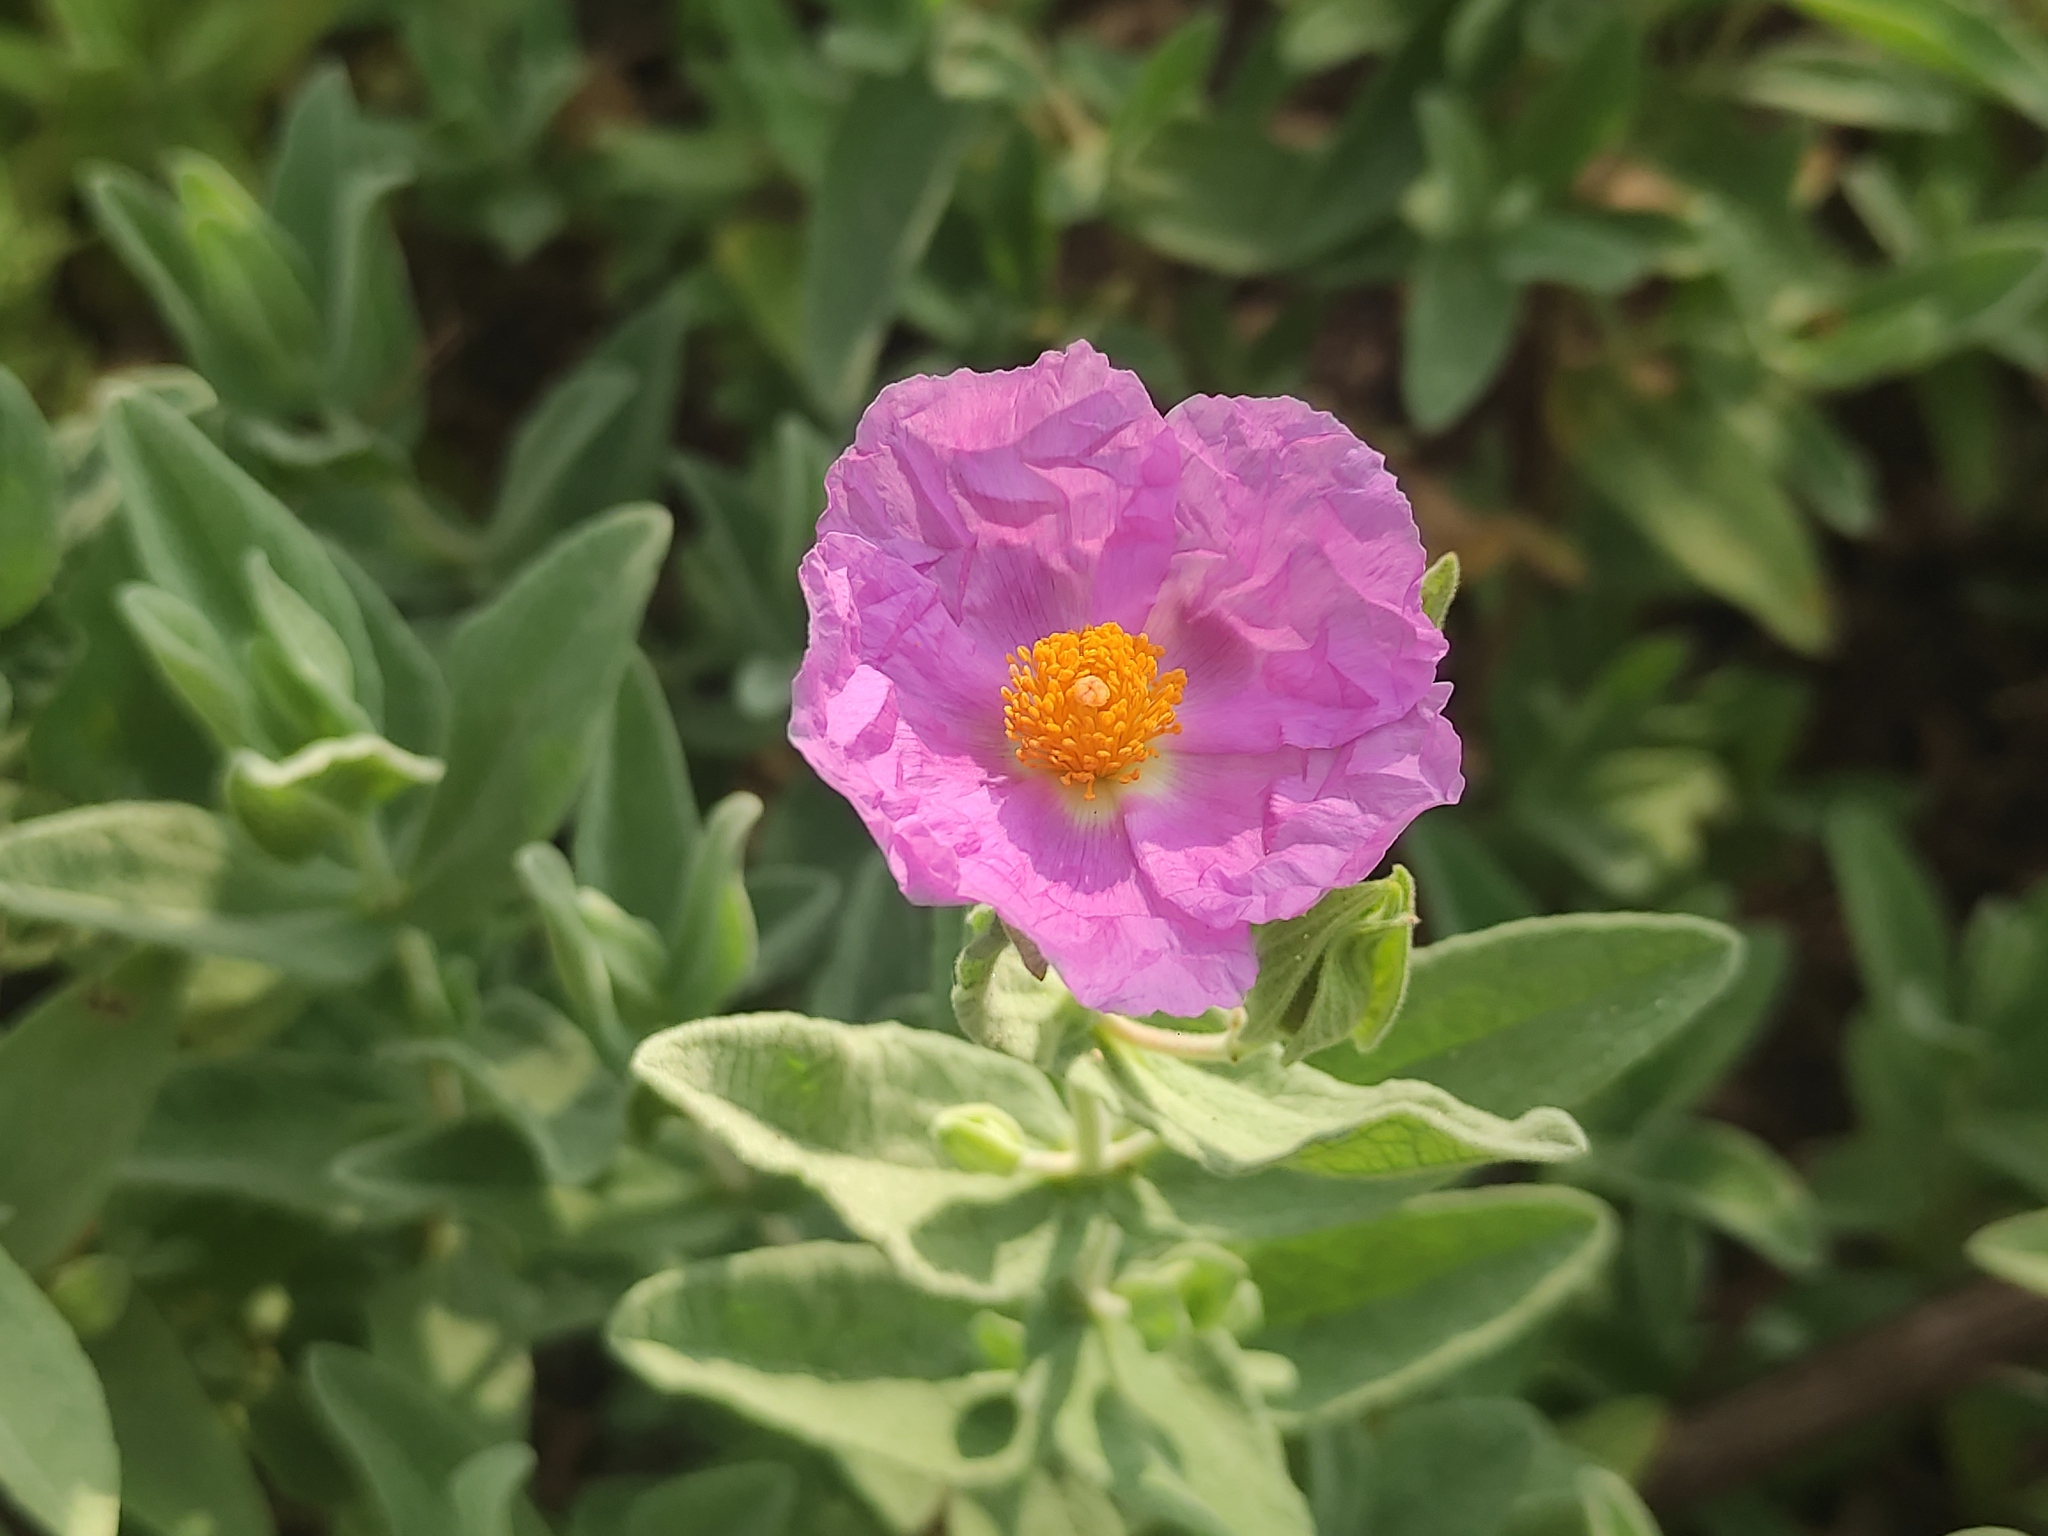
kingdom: Plantae
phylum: Tracheophyta
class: Magnoliopsida
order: Malvales
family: Cistaceae
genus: Cistus
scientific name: Cistus albidus
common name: White-leaf rock-rose
